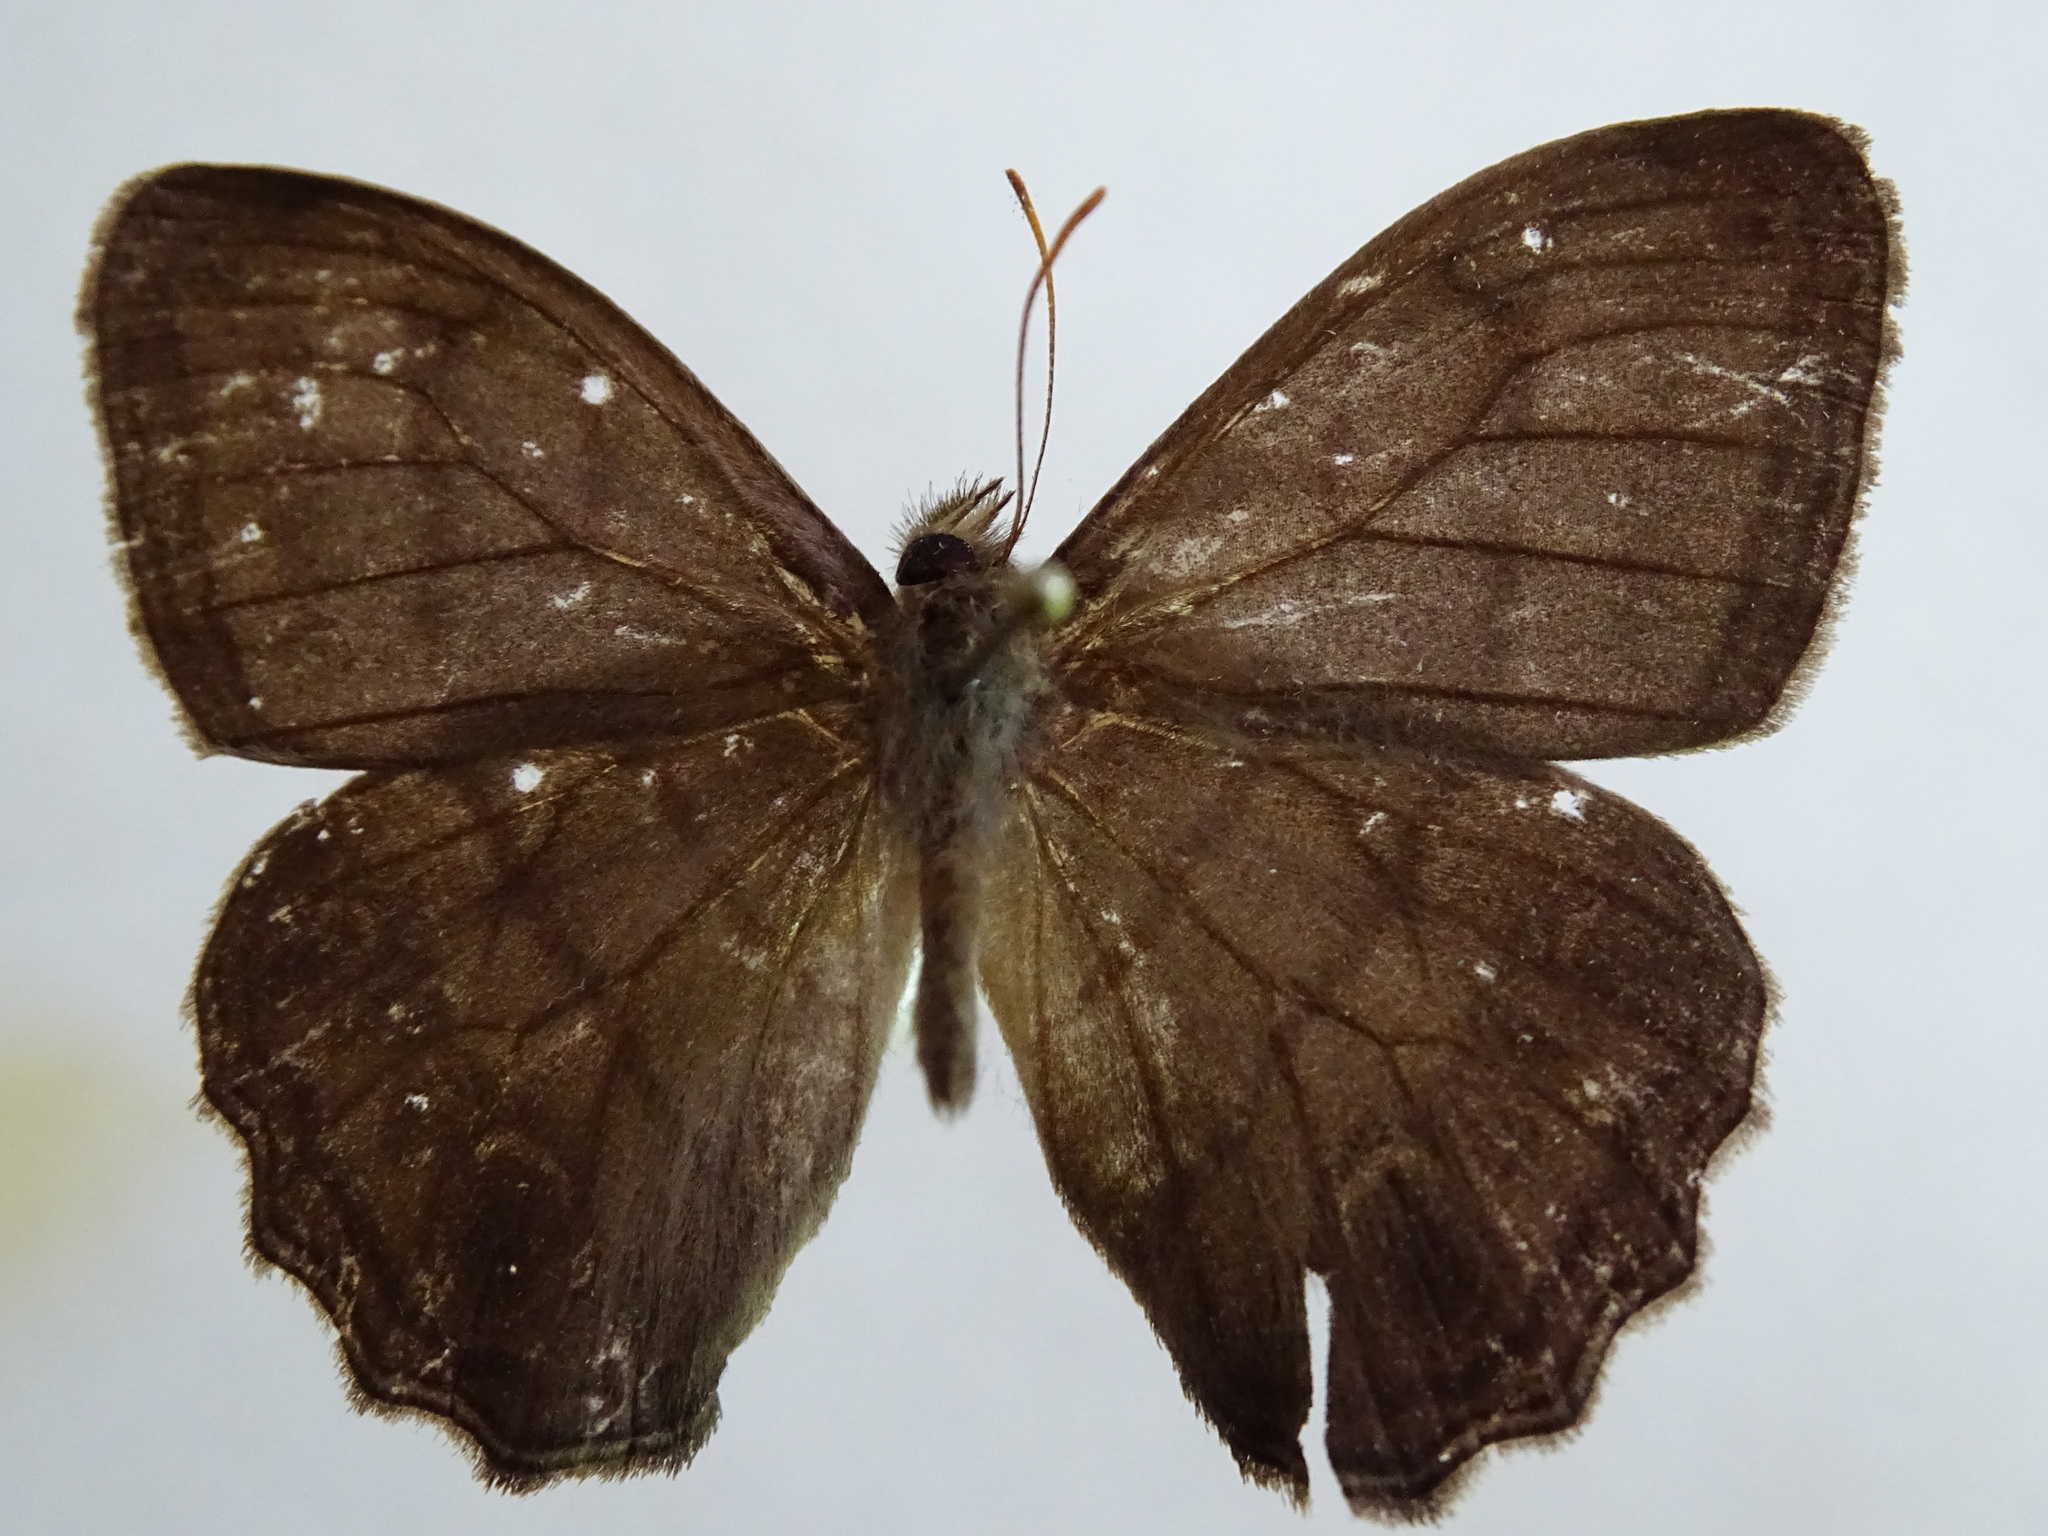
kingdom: Animalia
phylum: Arthropoda
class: Insecta
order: Lepidoptera
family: Nymphalidae
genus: Magneuptychia
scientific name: Magneuptychia libye
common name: Blue-gray satyr
